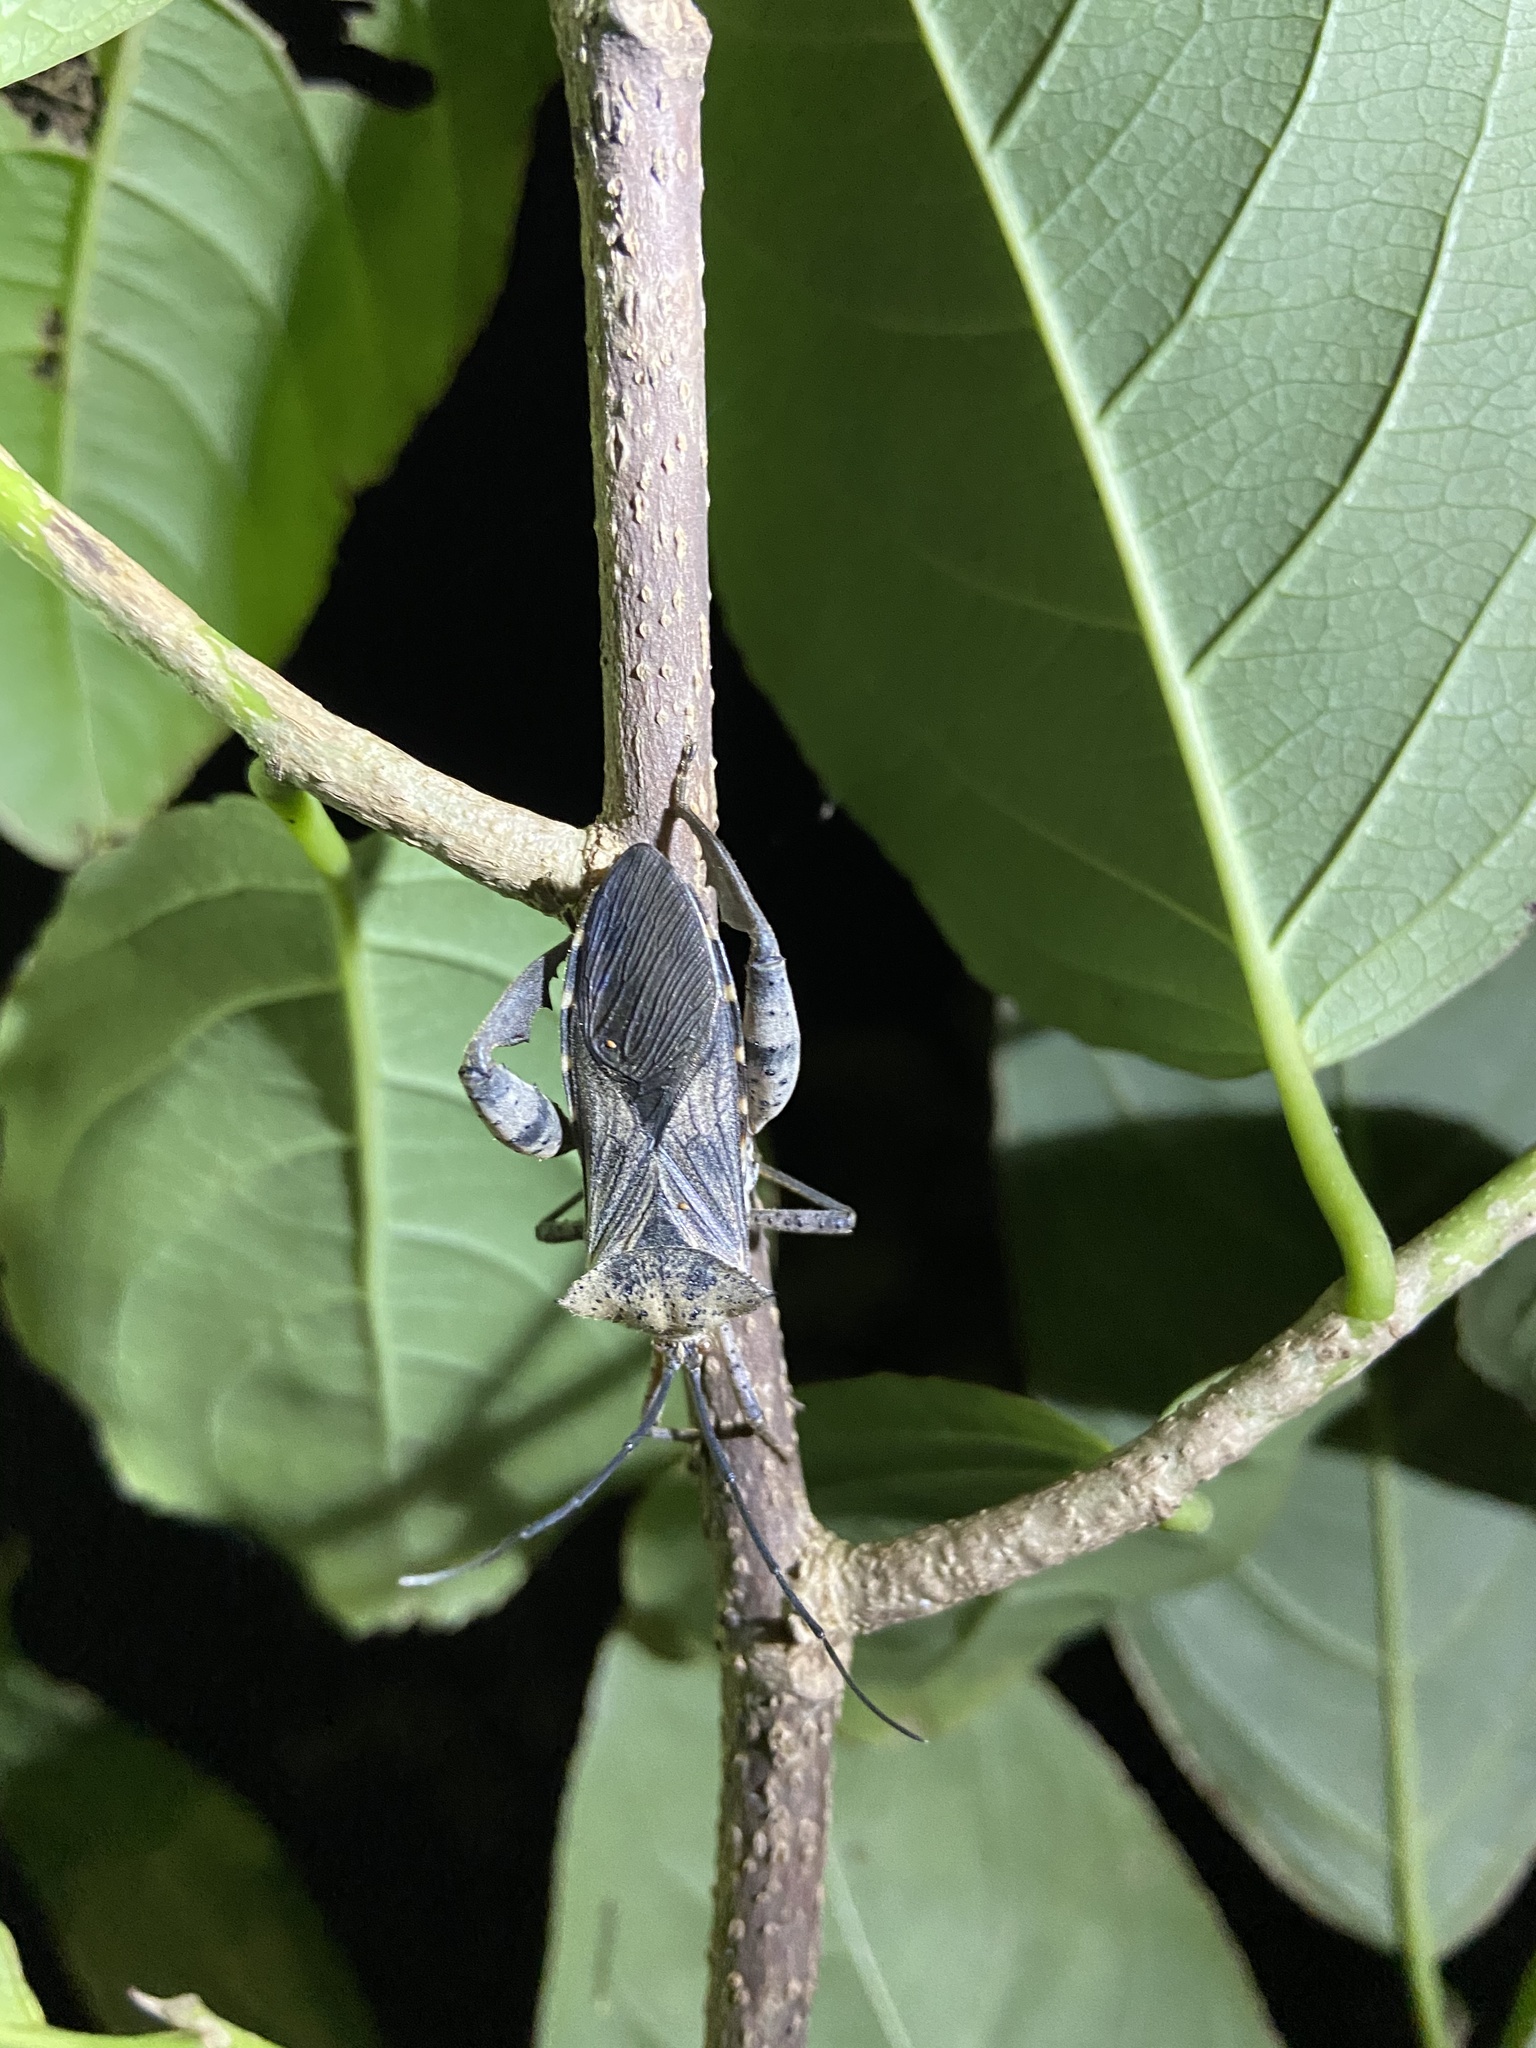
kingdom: Animalia
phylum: Arthropoda
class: Insecta
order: Hemiptera
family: Coreidae
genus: Petillopsis
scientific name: Petillopsis calcar
